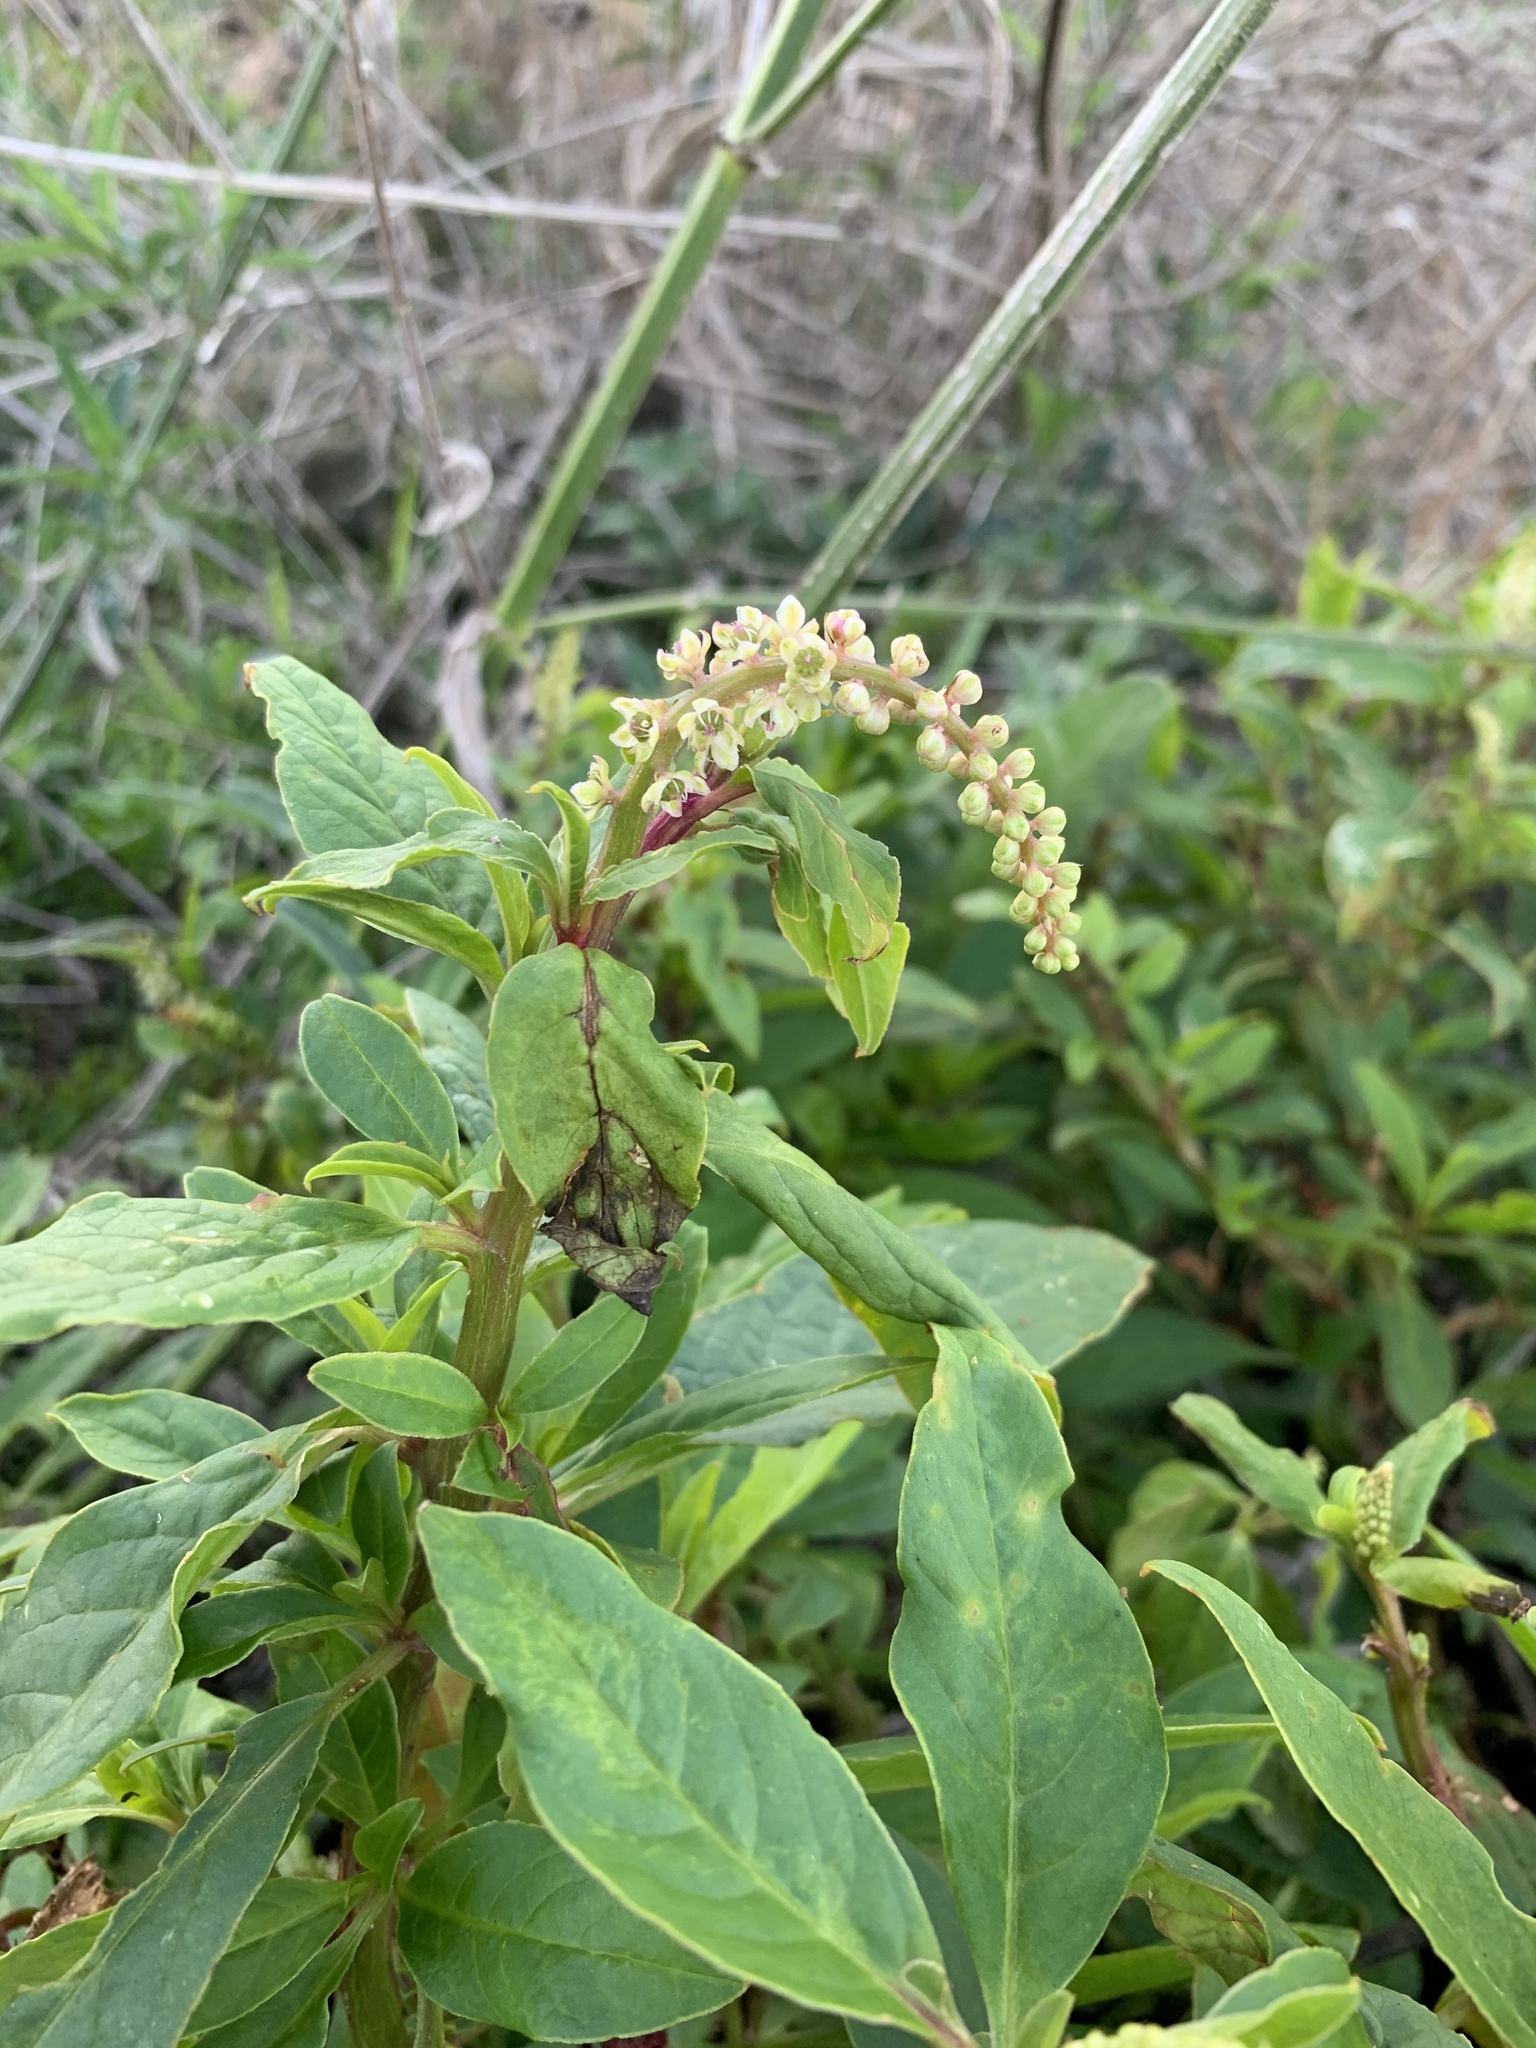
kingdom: Plantae
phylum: Tracheophyta
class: Magnoliopsida
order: Caryophyllales
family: Phytolaccaceae
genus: Phytolacca
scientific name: Phytolacca icosandra
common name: Button pokeweed
